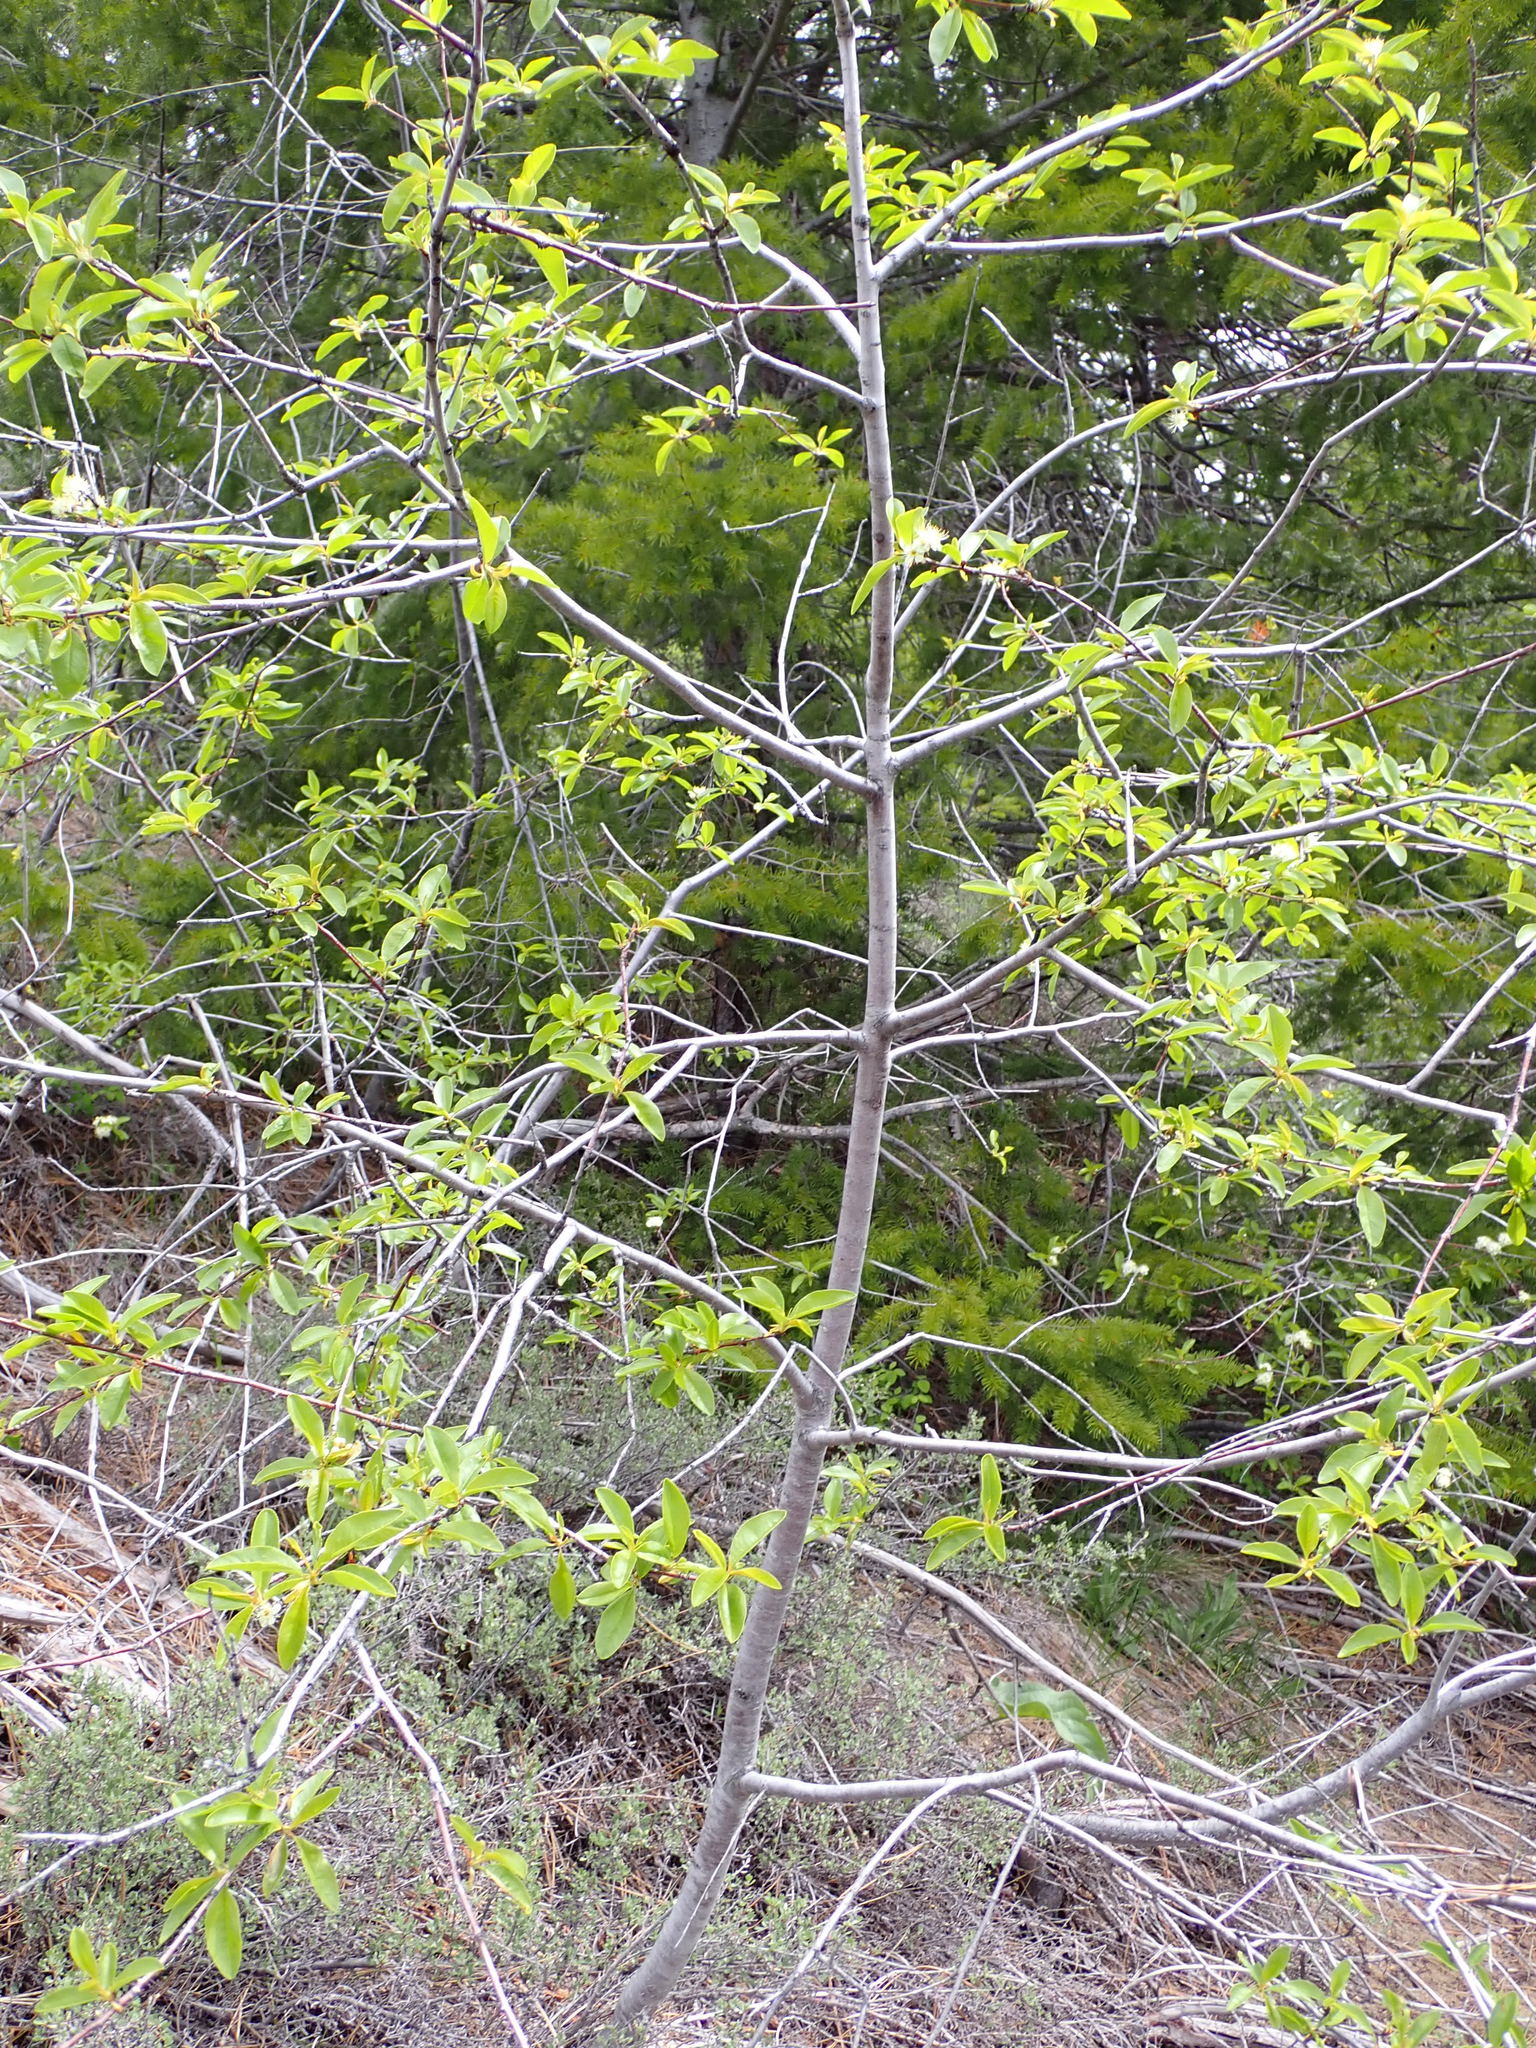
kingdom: Plantae
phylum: Tracheophyta
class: Magnoliopsida
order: Rosales
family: Rosaceae
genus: Prunus
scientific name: Prunus emarginata
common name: Bitter cherry
